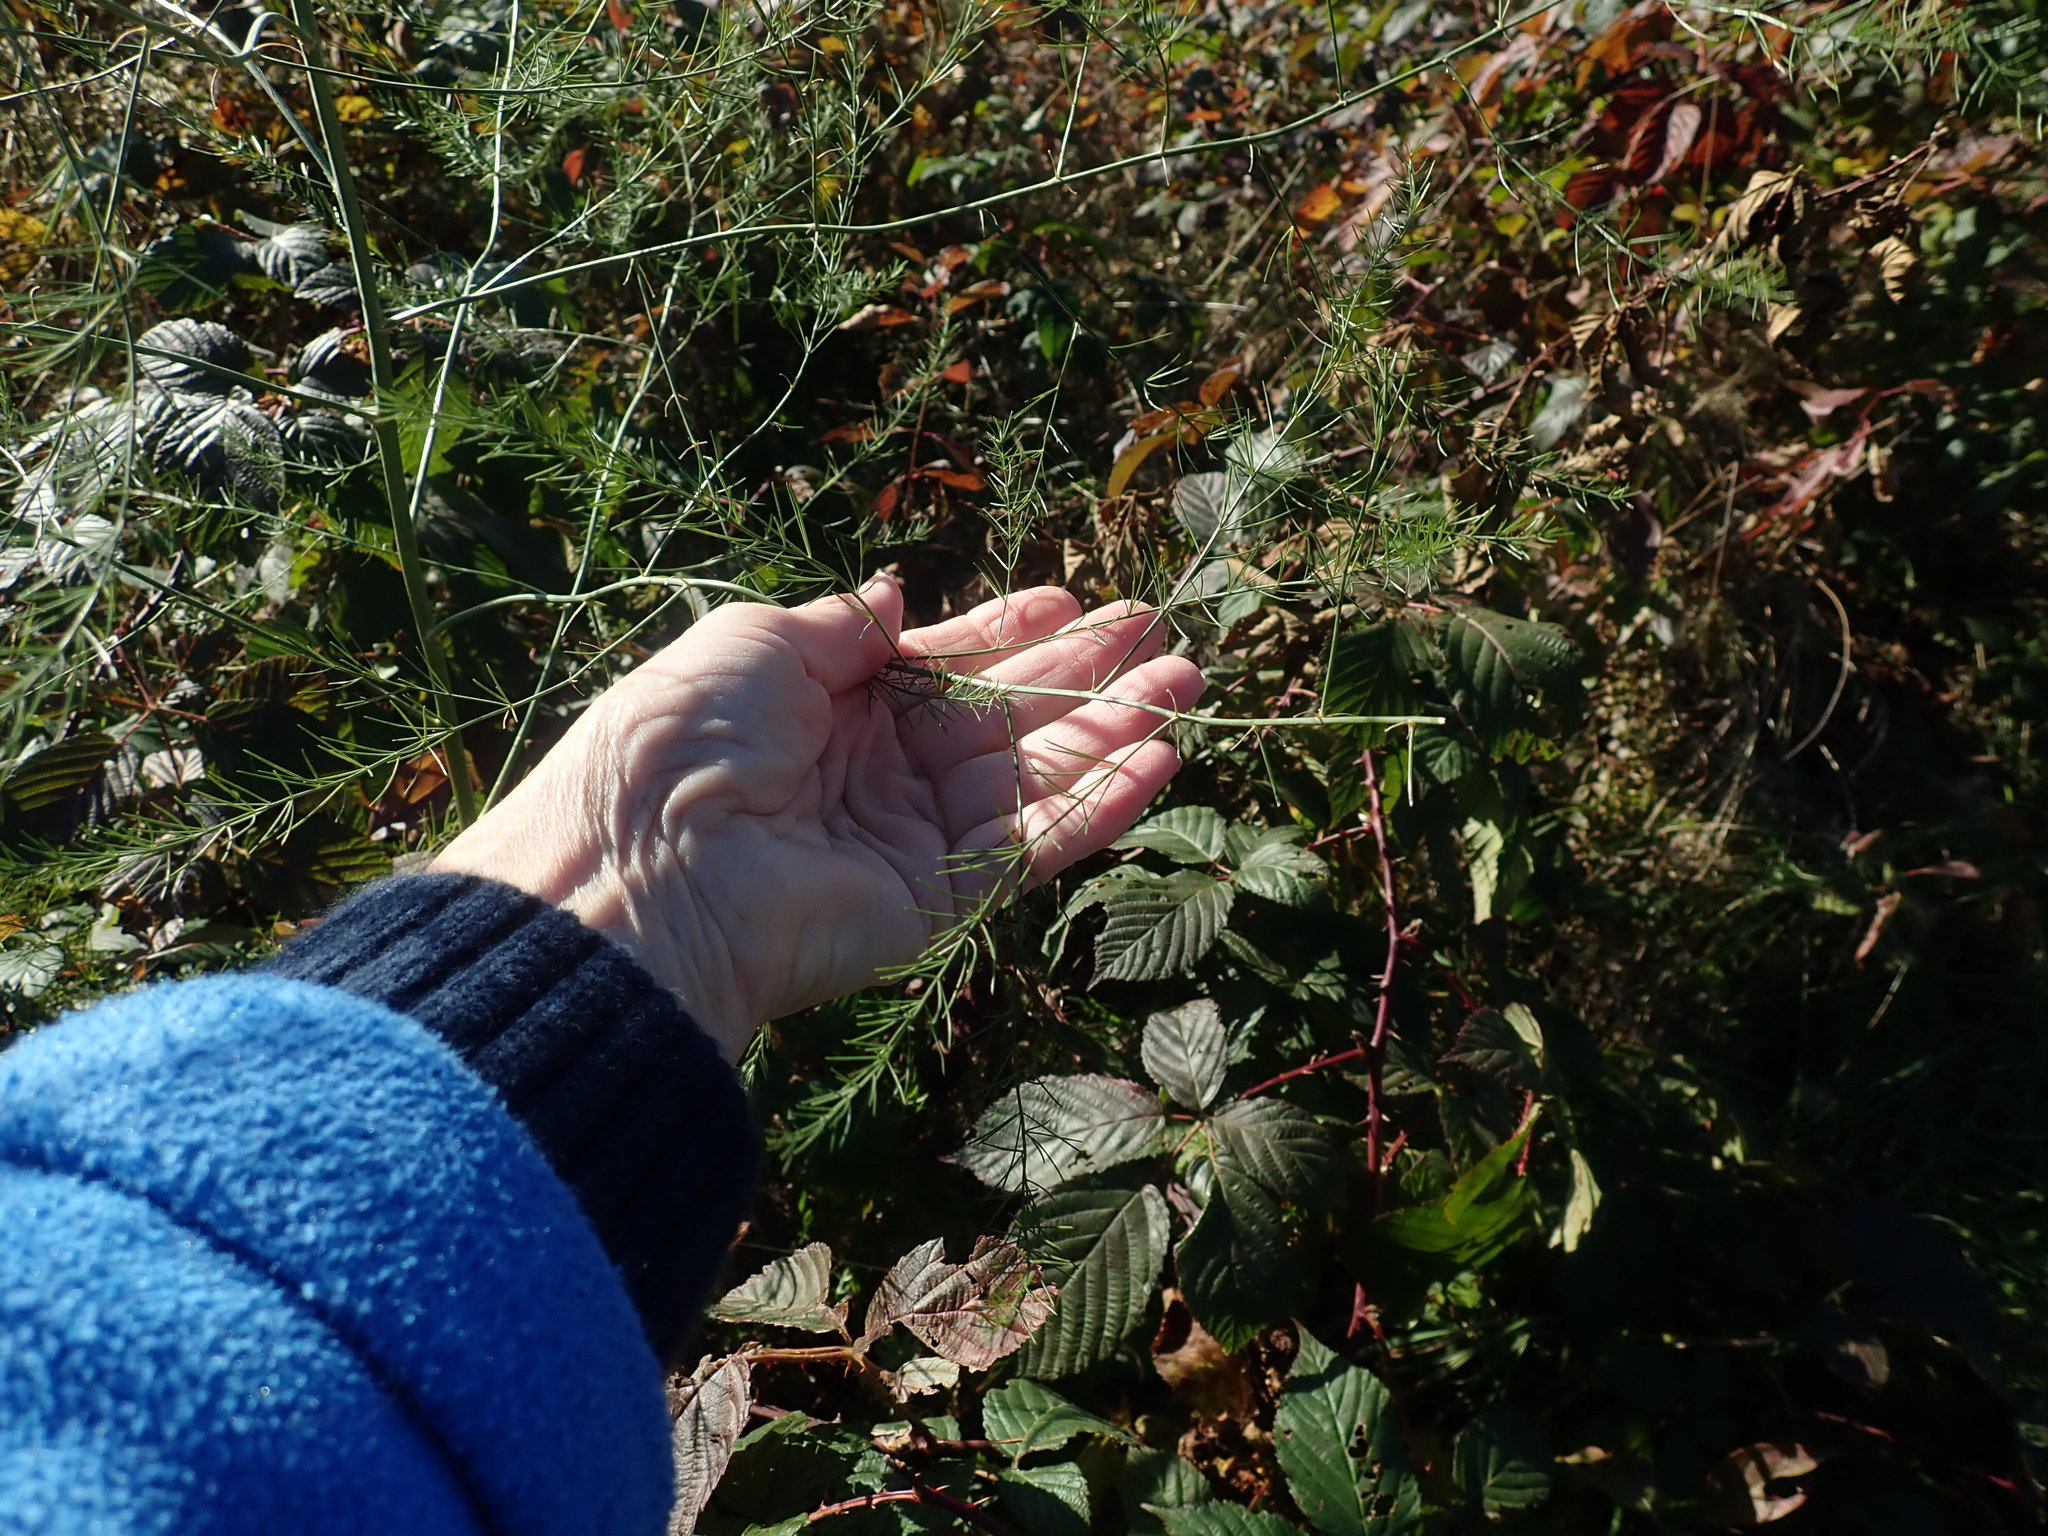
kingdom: Plantae
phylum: Tracheophyta
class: Liliopsida
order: Asparagales
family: Asparagaceae
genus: Asparagus
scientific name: Asparagus officinalis
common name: Garden asparagus
